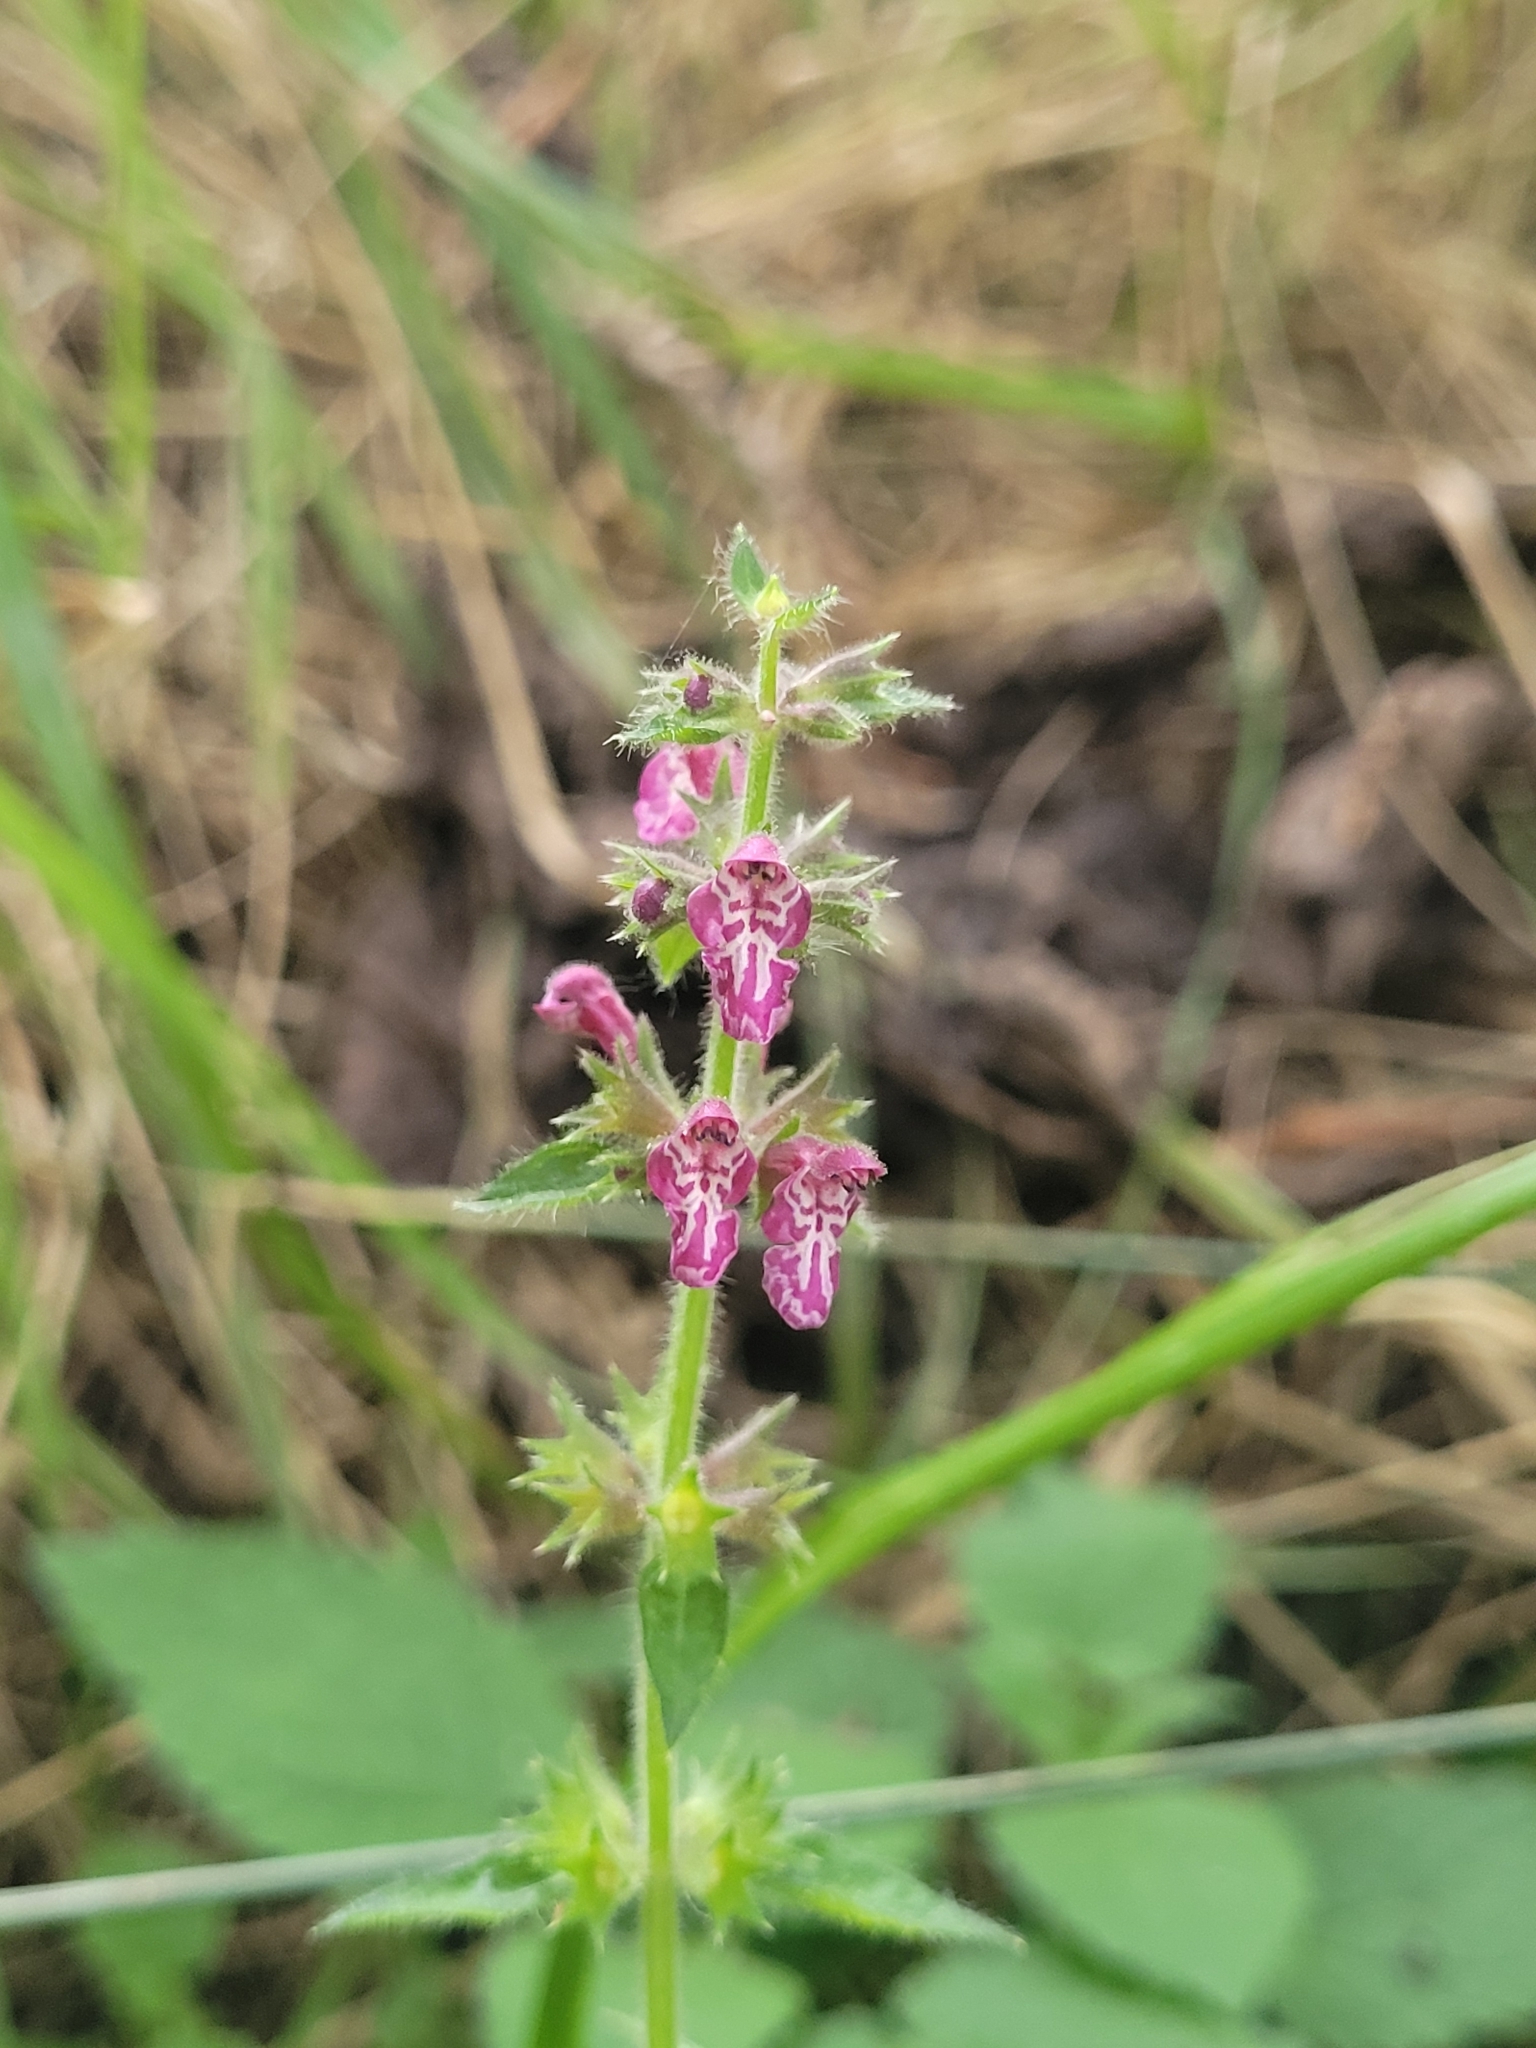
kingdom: Plantae
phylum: Tracheophyta
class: Magnoliopsida
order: Lamiales
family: Lamiaceae
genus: Stachys
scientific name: Stachys sylvatica
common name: Hedge woundwort
